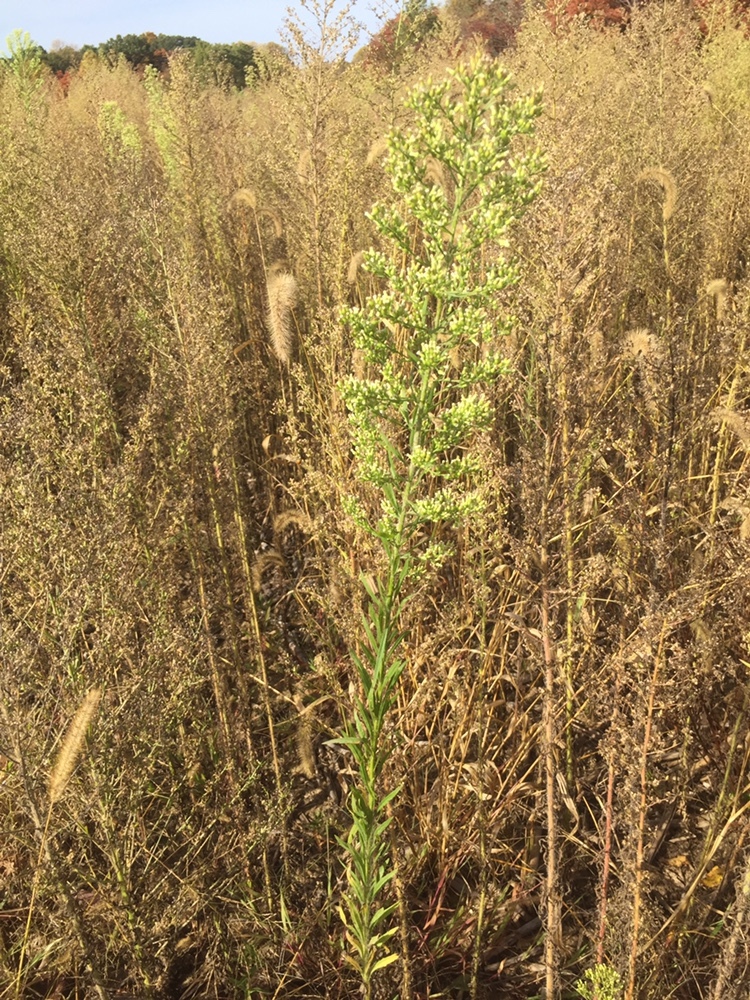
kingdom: Plantae
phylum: Tracheophyta
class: Magnoliopsida
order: Asterales
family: Asteraceae
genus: Erigeron
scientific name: Erigeron canadensis
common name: Canadian fleabane
